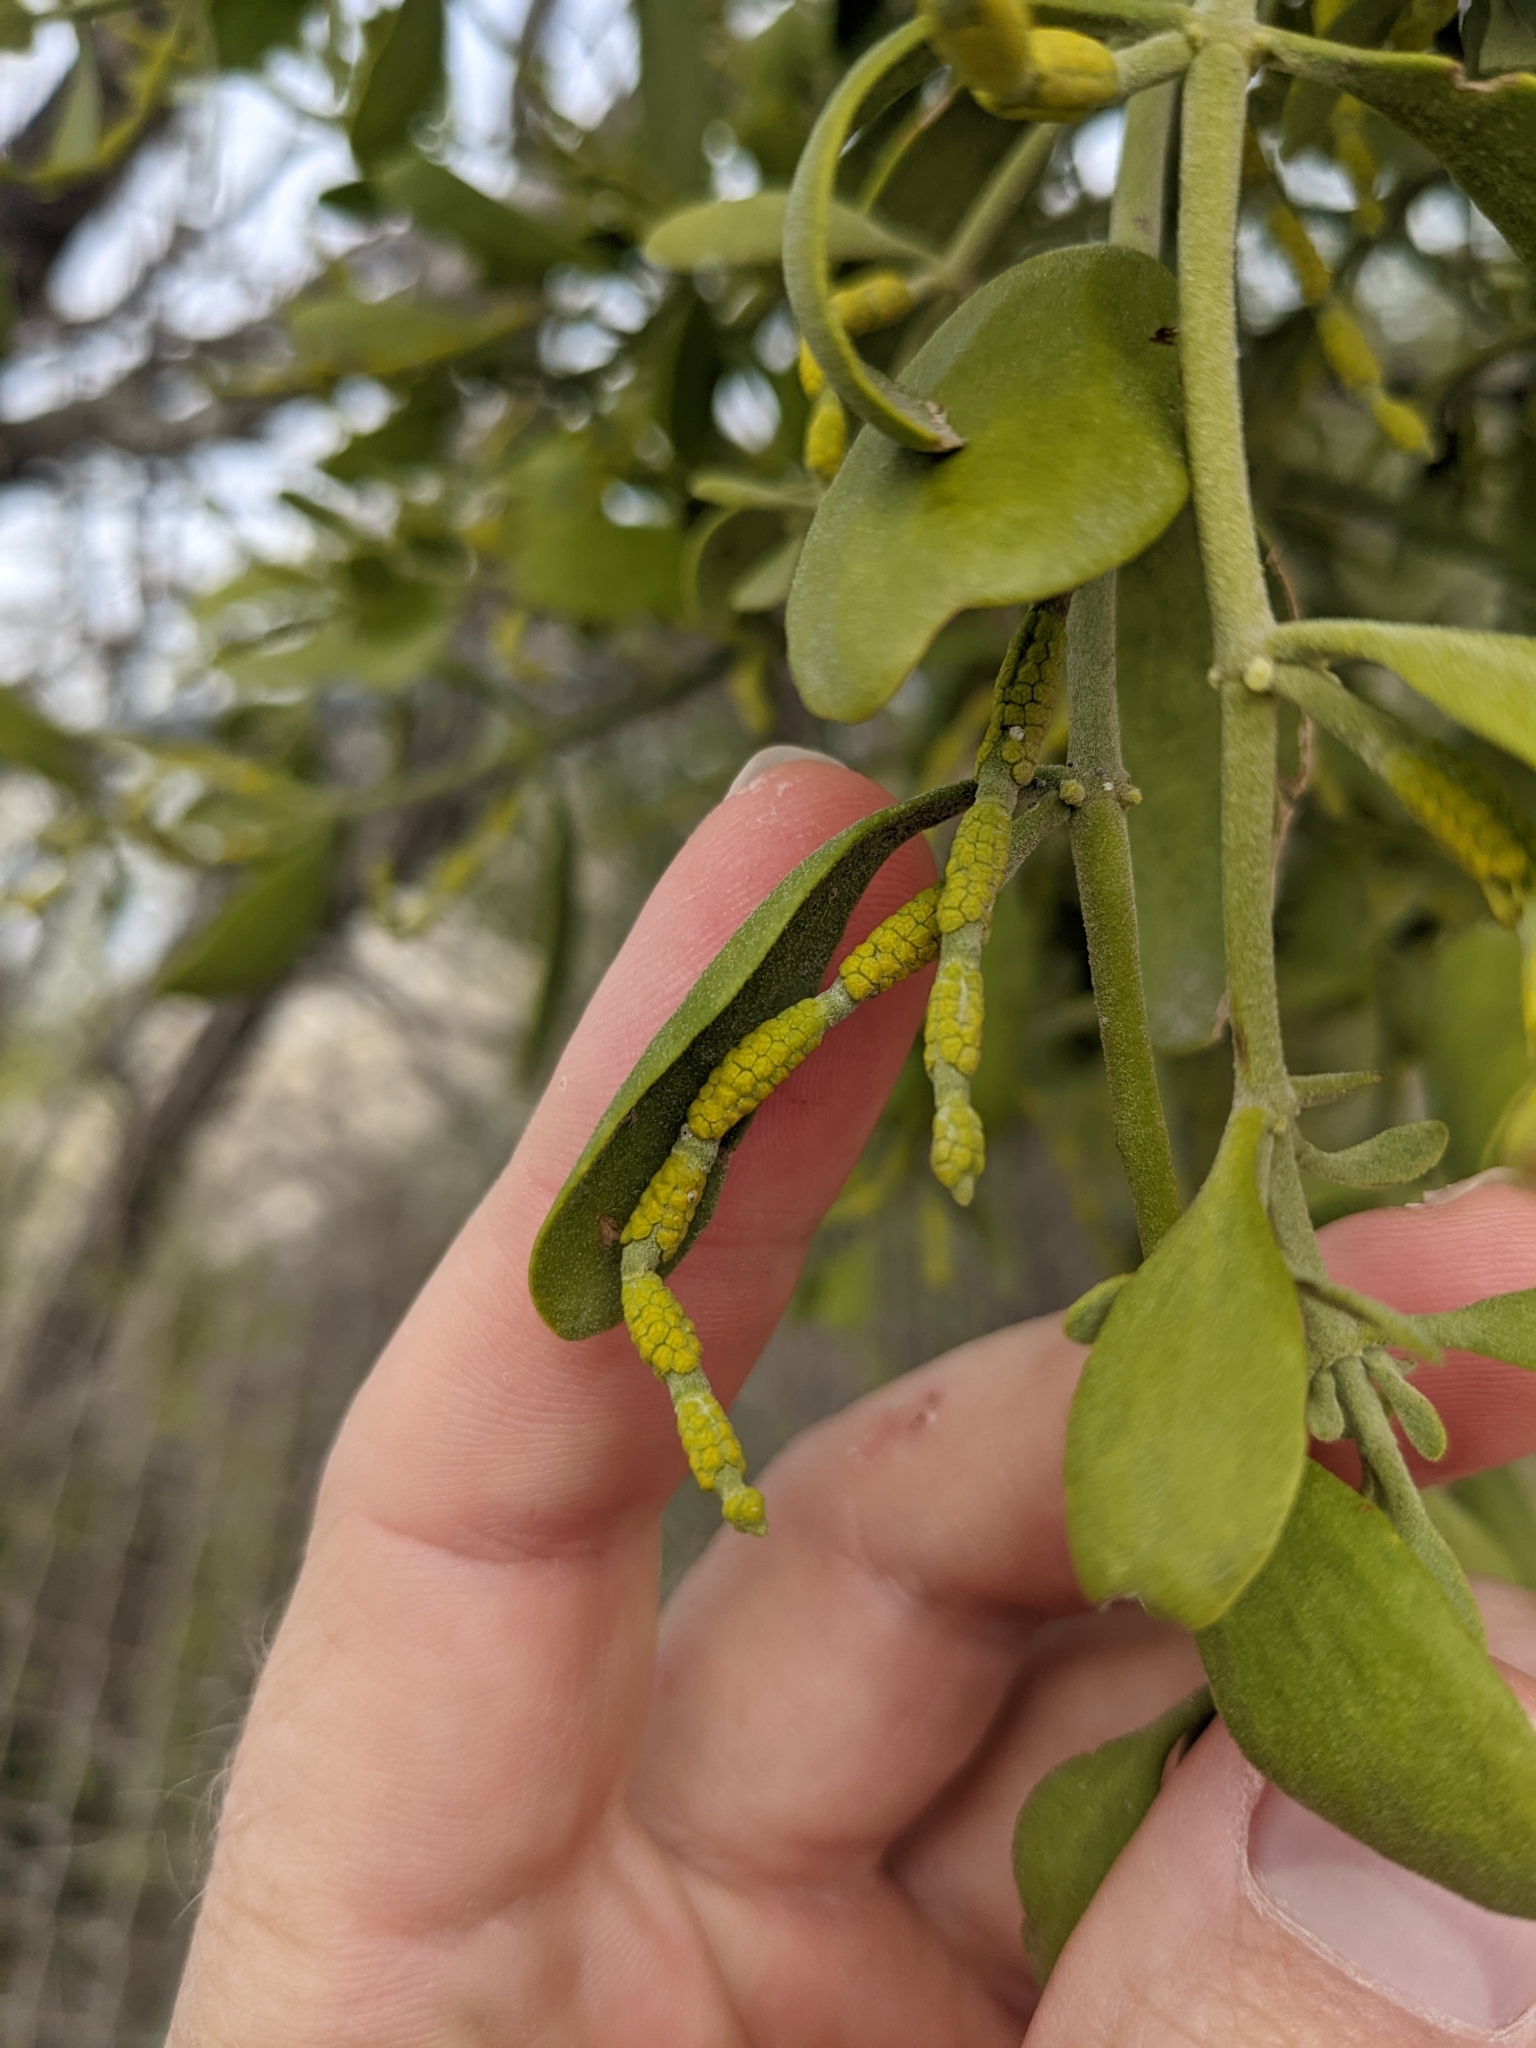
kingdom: Plantae
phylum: Tracheophyta
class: Magnoliopsida
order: Santalales
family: Viscaceae
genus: Phoradendron
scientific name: Phoradendron leucarpum
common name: Pacific mistletoe
